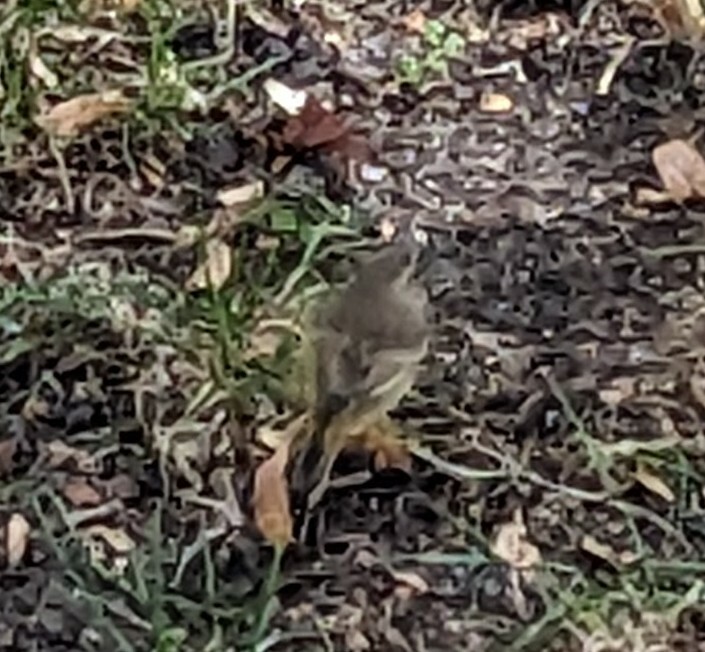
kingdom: Animalia
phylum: Chordata
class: Aves
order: Passeriformes
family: Parulidae
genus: Setophaga
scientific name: Setophaga palmarum
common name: Palm warbler
